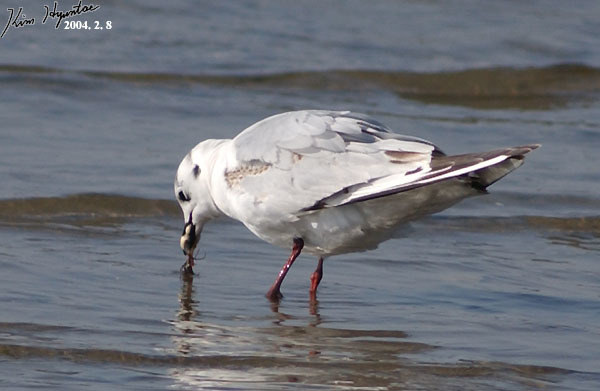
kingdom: Animalia
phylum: Chordata
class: Aves
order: Charadriiformes
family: Laridae
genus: Chroicocephalus
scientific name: Chroicocephalus saundersi
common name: Saunders's gull
